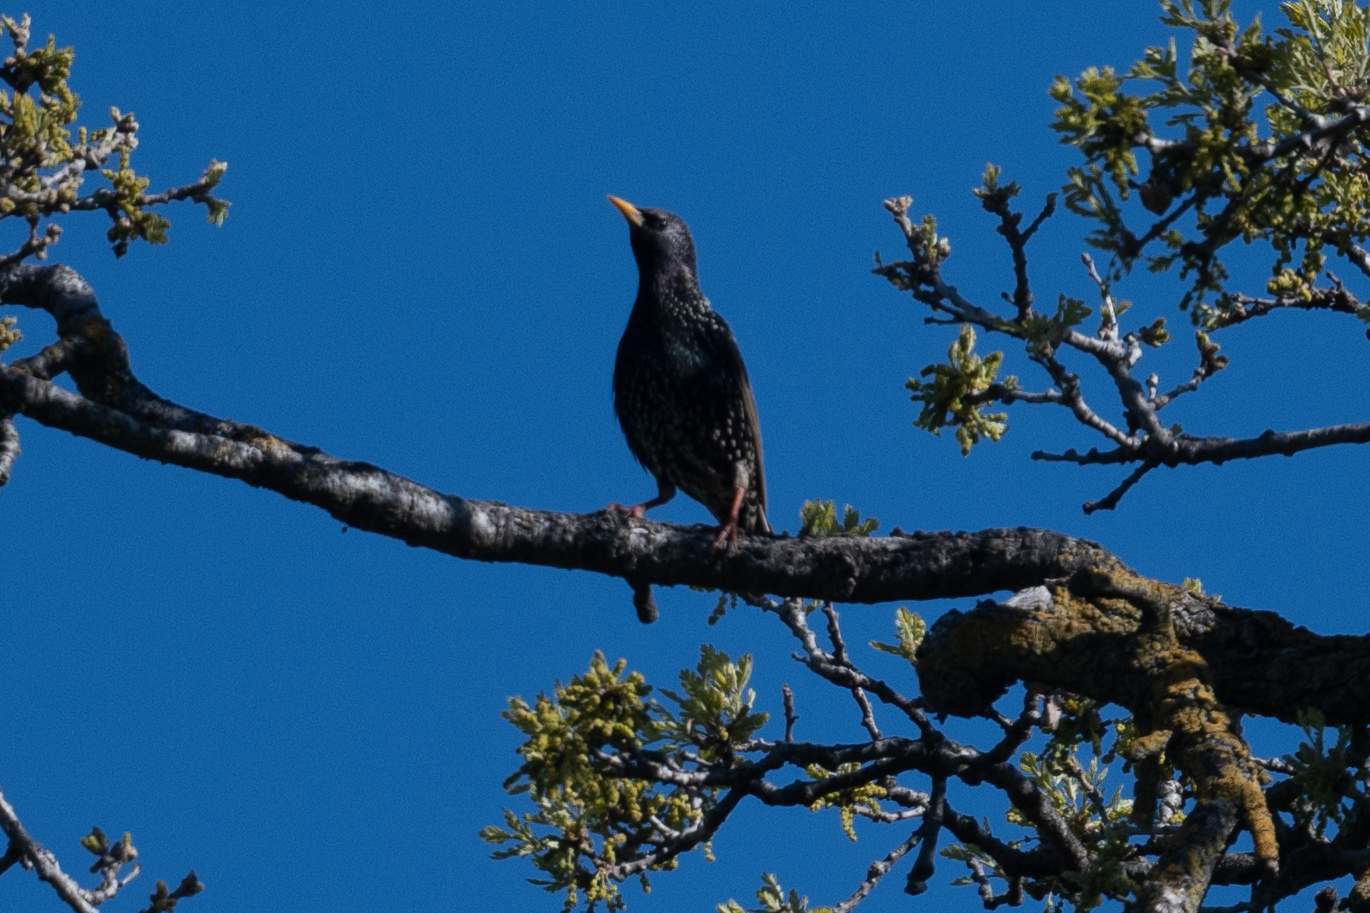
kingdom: Animalia
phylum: Chordata
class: Aves
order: Passeriformes
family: Sturnidae
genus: Sturnus
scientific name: Sturnus vulgaris
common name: Common starling
